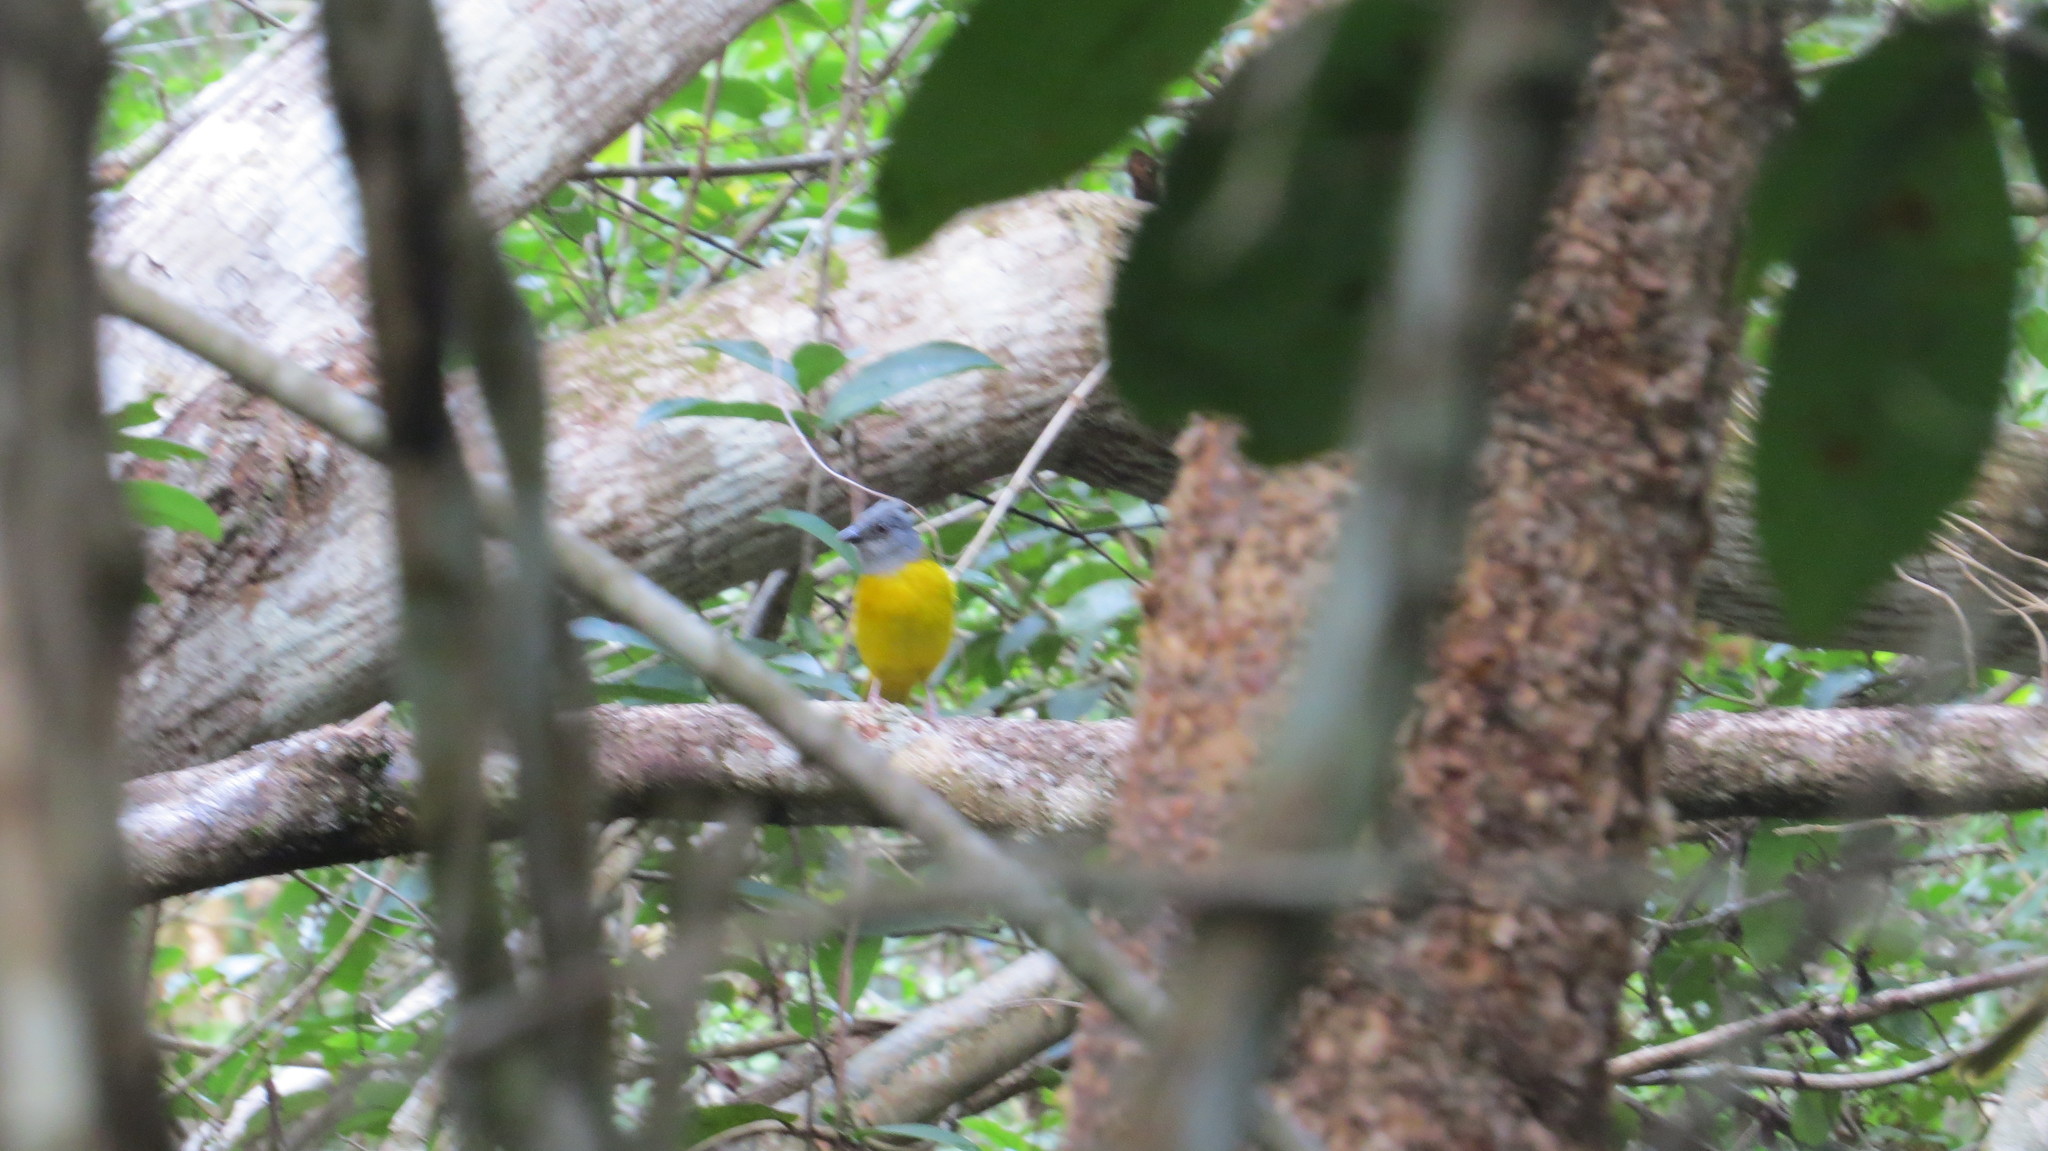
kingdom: Animalia
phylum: Chordata
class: Aves
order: Passeriformes
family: Thraupidae
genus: Eucometis
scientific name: Eucometis penicillata
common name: Grey-headed tanager
